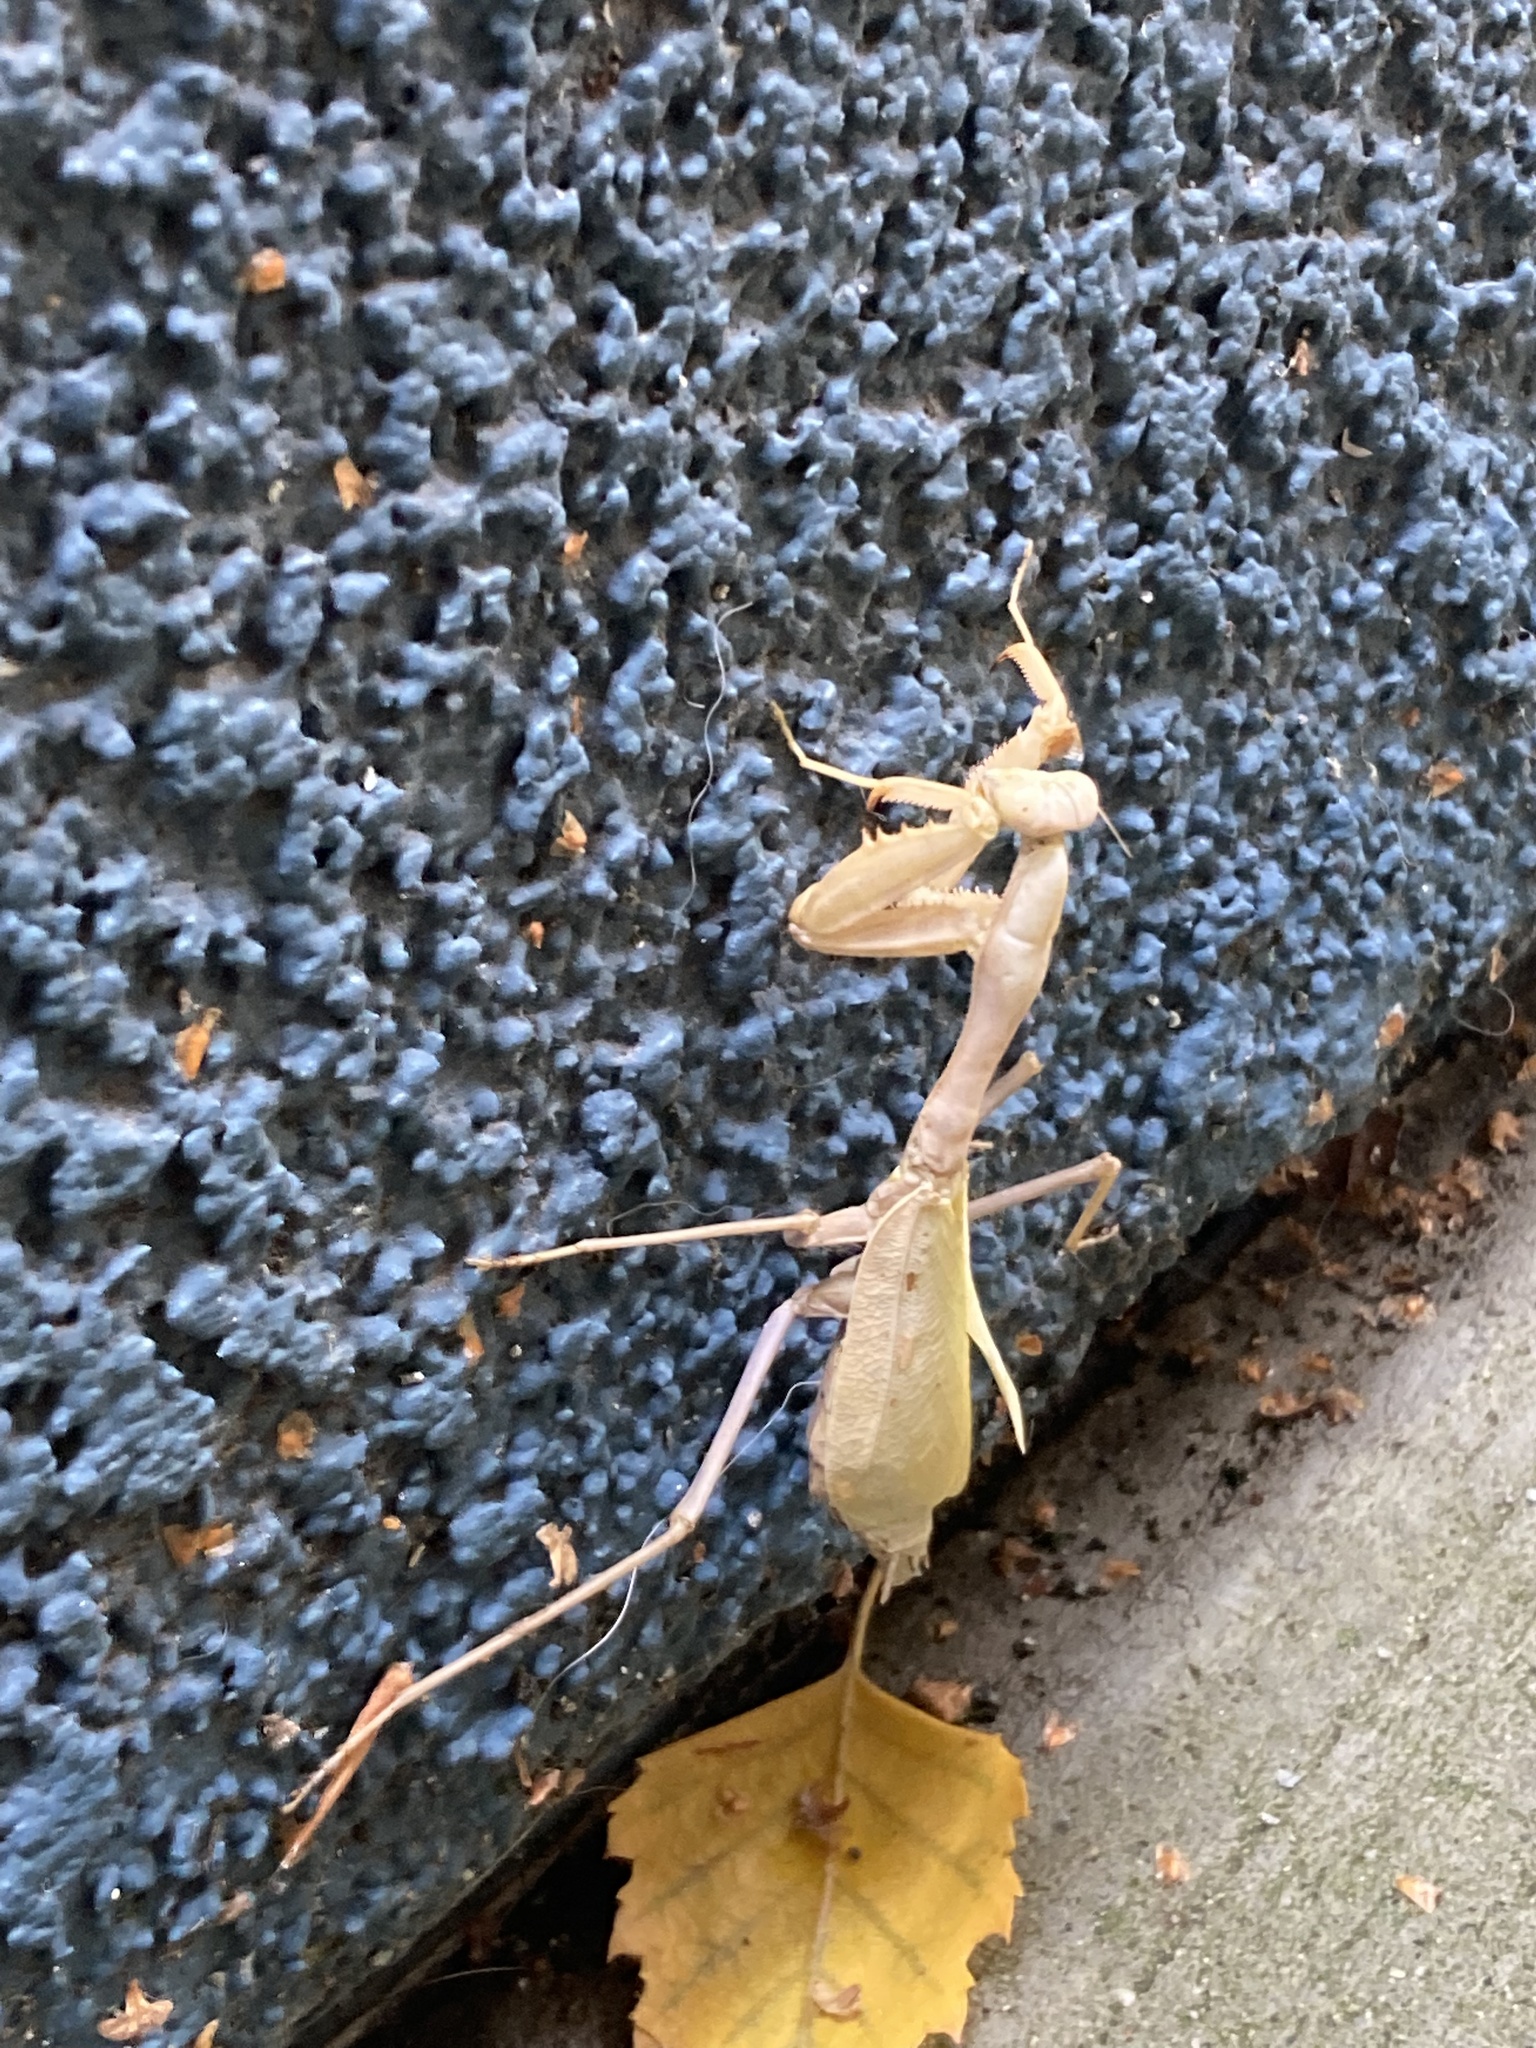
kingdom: Animalia
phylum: Arthropoda
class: Insecta
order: Mantodea
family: Mantidae
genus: Stagmomantis
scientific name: Stagmomantis limbata
